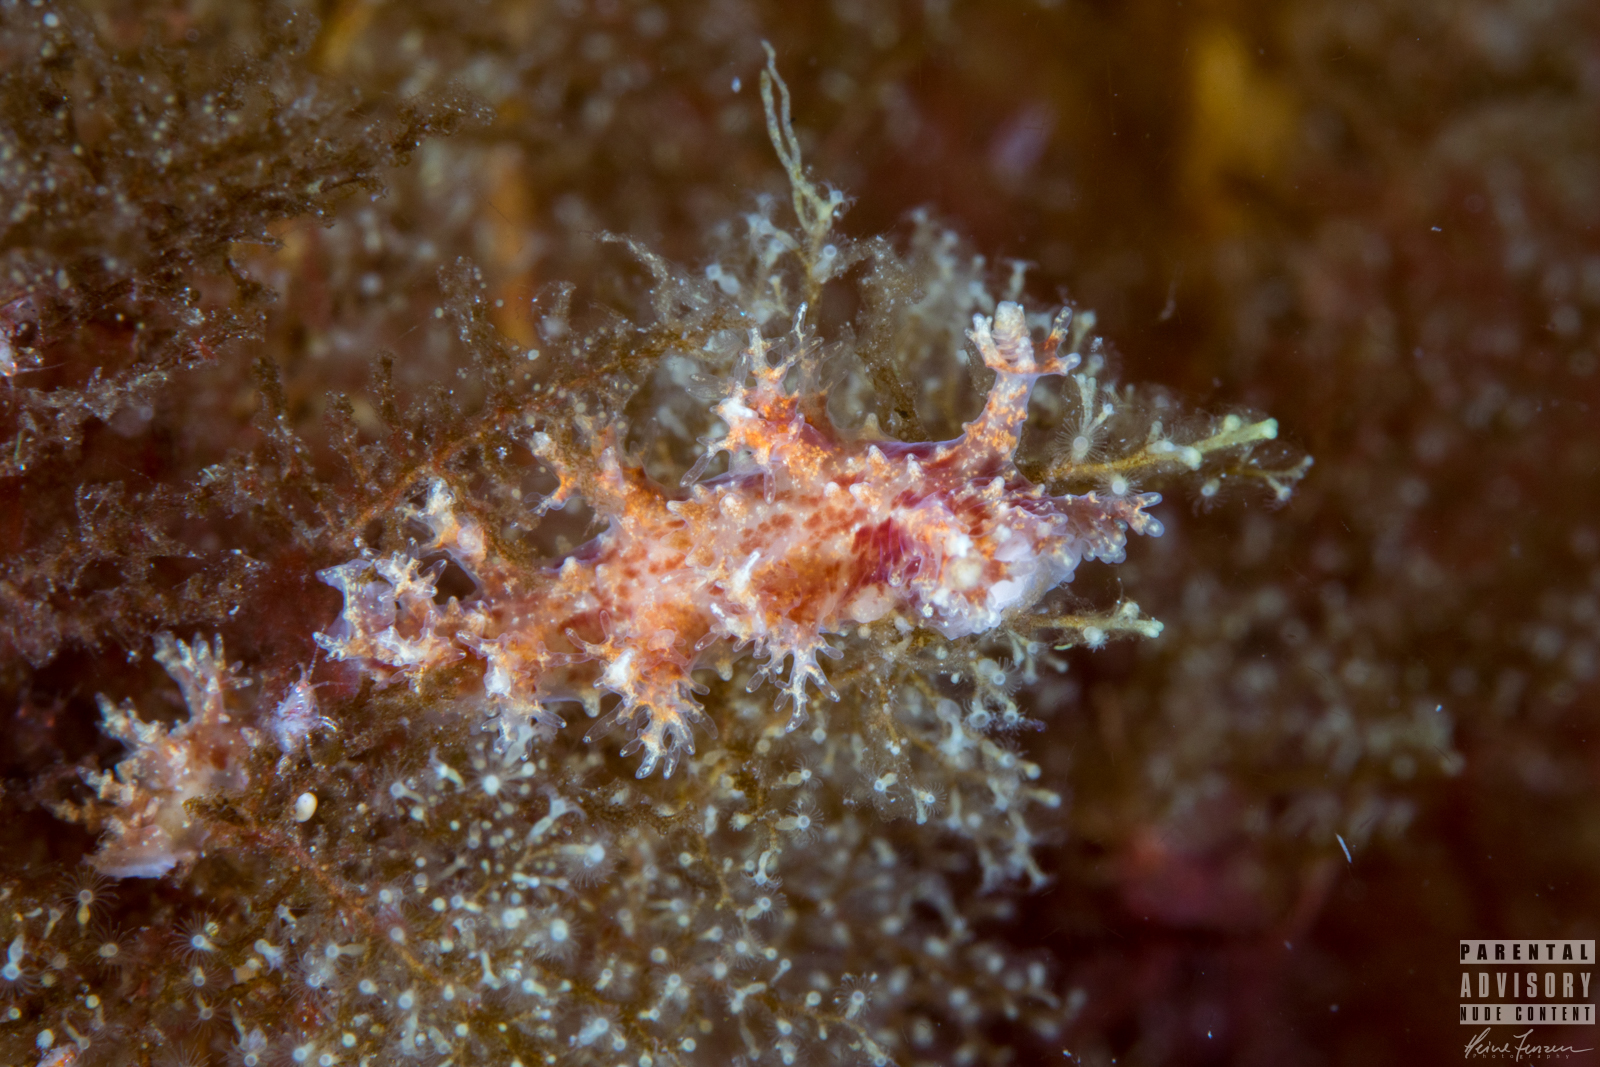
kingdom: Animalia
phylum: Mollusca
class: Gastropoda
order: Nudibranchia
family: Dendronotidae
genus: Dendronotus
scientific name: Dendronotus frondosus
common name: Bushy-backed nudibranch
